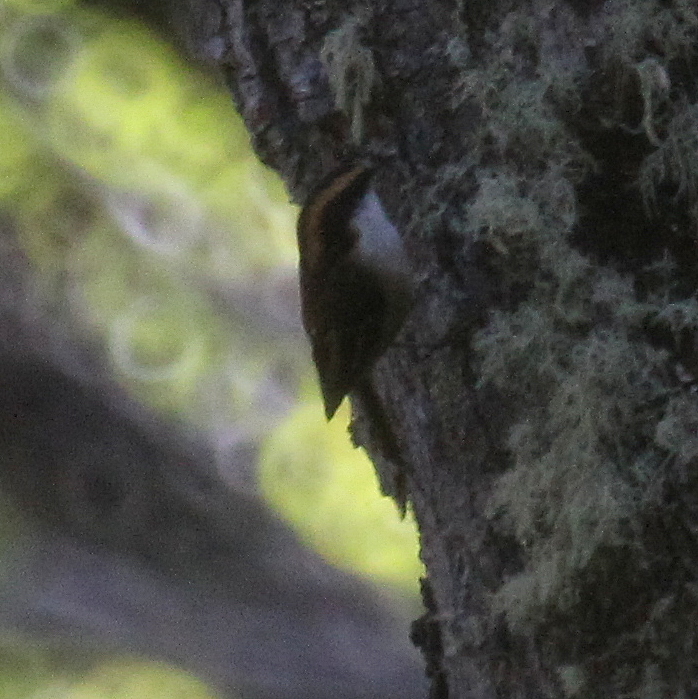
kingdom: Animalia
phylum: Chordata
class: Aves
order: Passeriformes
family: Furnariidae
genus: Aphrastura
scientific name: Aphrastura spinicauda
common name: Thorn-tailed rayadito
